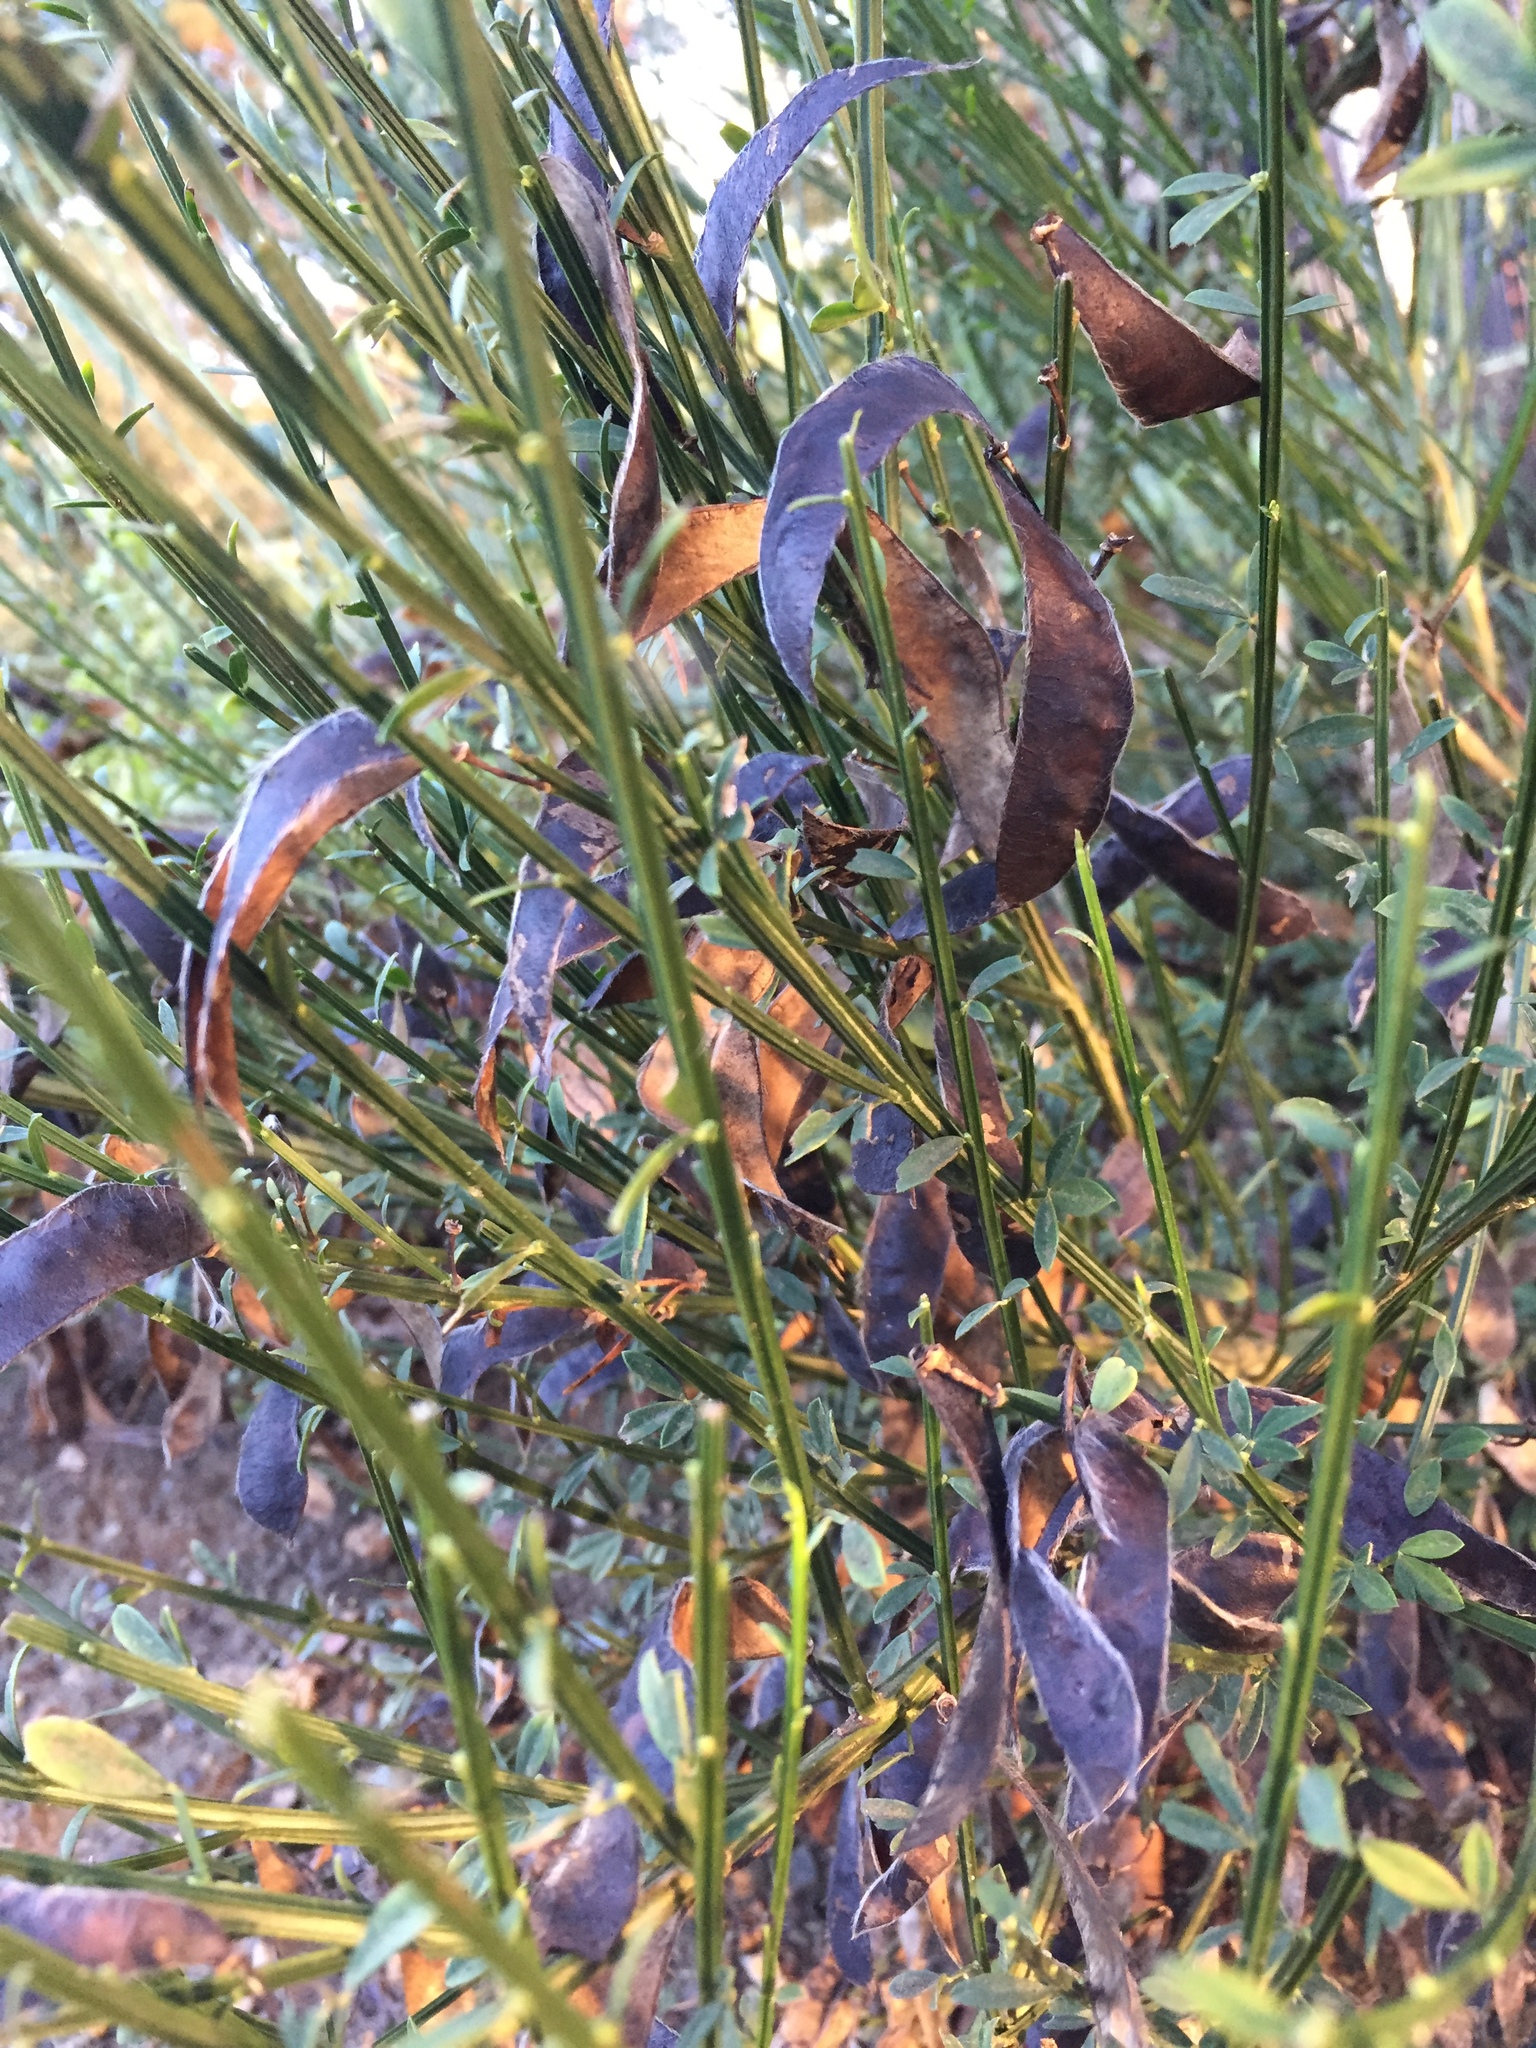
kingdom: Plantae
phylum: Tracheophyta
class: Magnoliopsida
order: Fabales
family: Fabaceae
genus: Cytisus
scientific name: Cytisus scoparius
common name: Scotch broom
